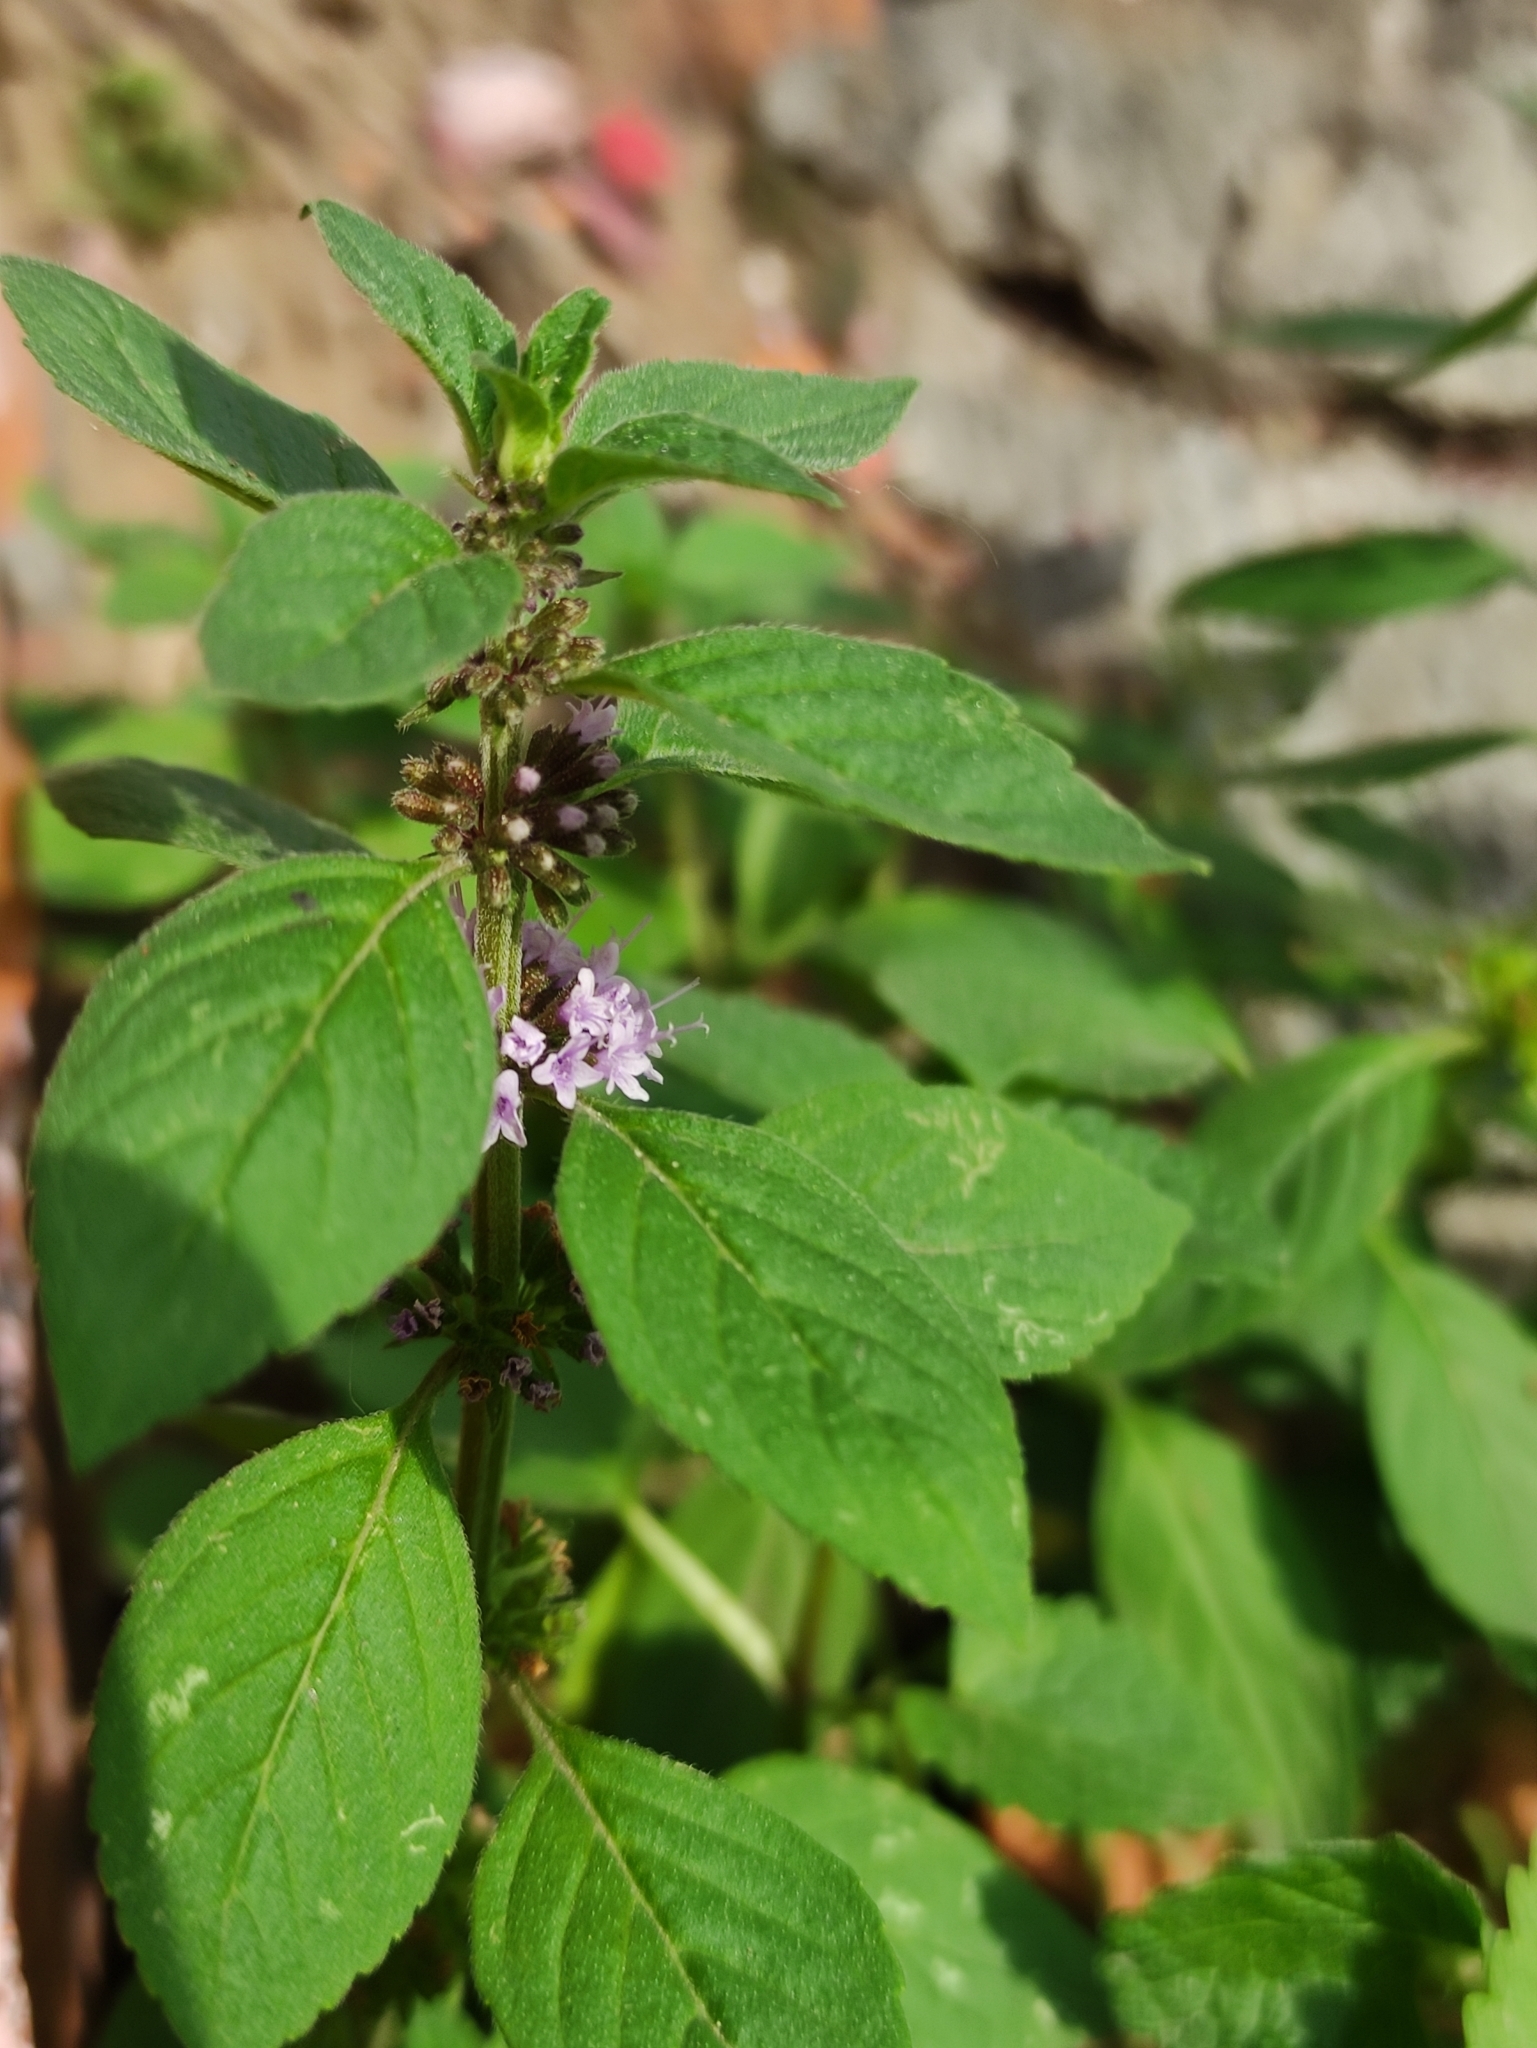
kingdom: Plantae
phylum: Tracheophyta
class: Magnoliopsida
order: Lamiales
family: Lamiaceae
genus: Mentha
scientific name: Mentha arvensis
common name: Corn mint
